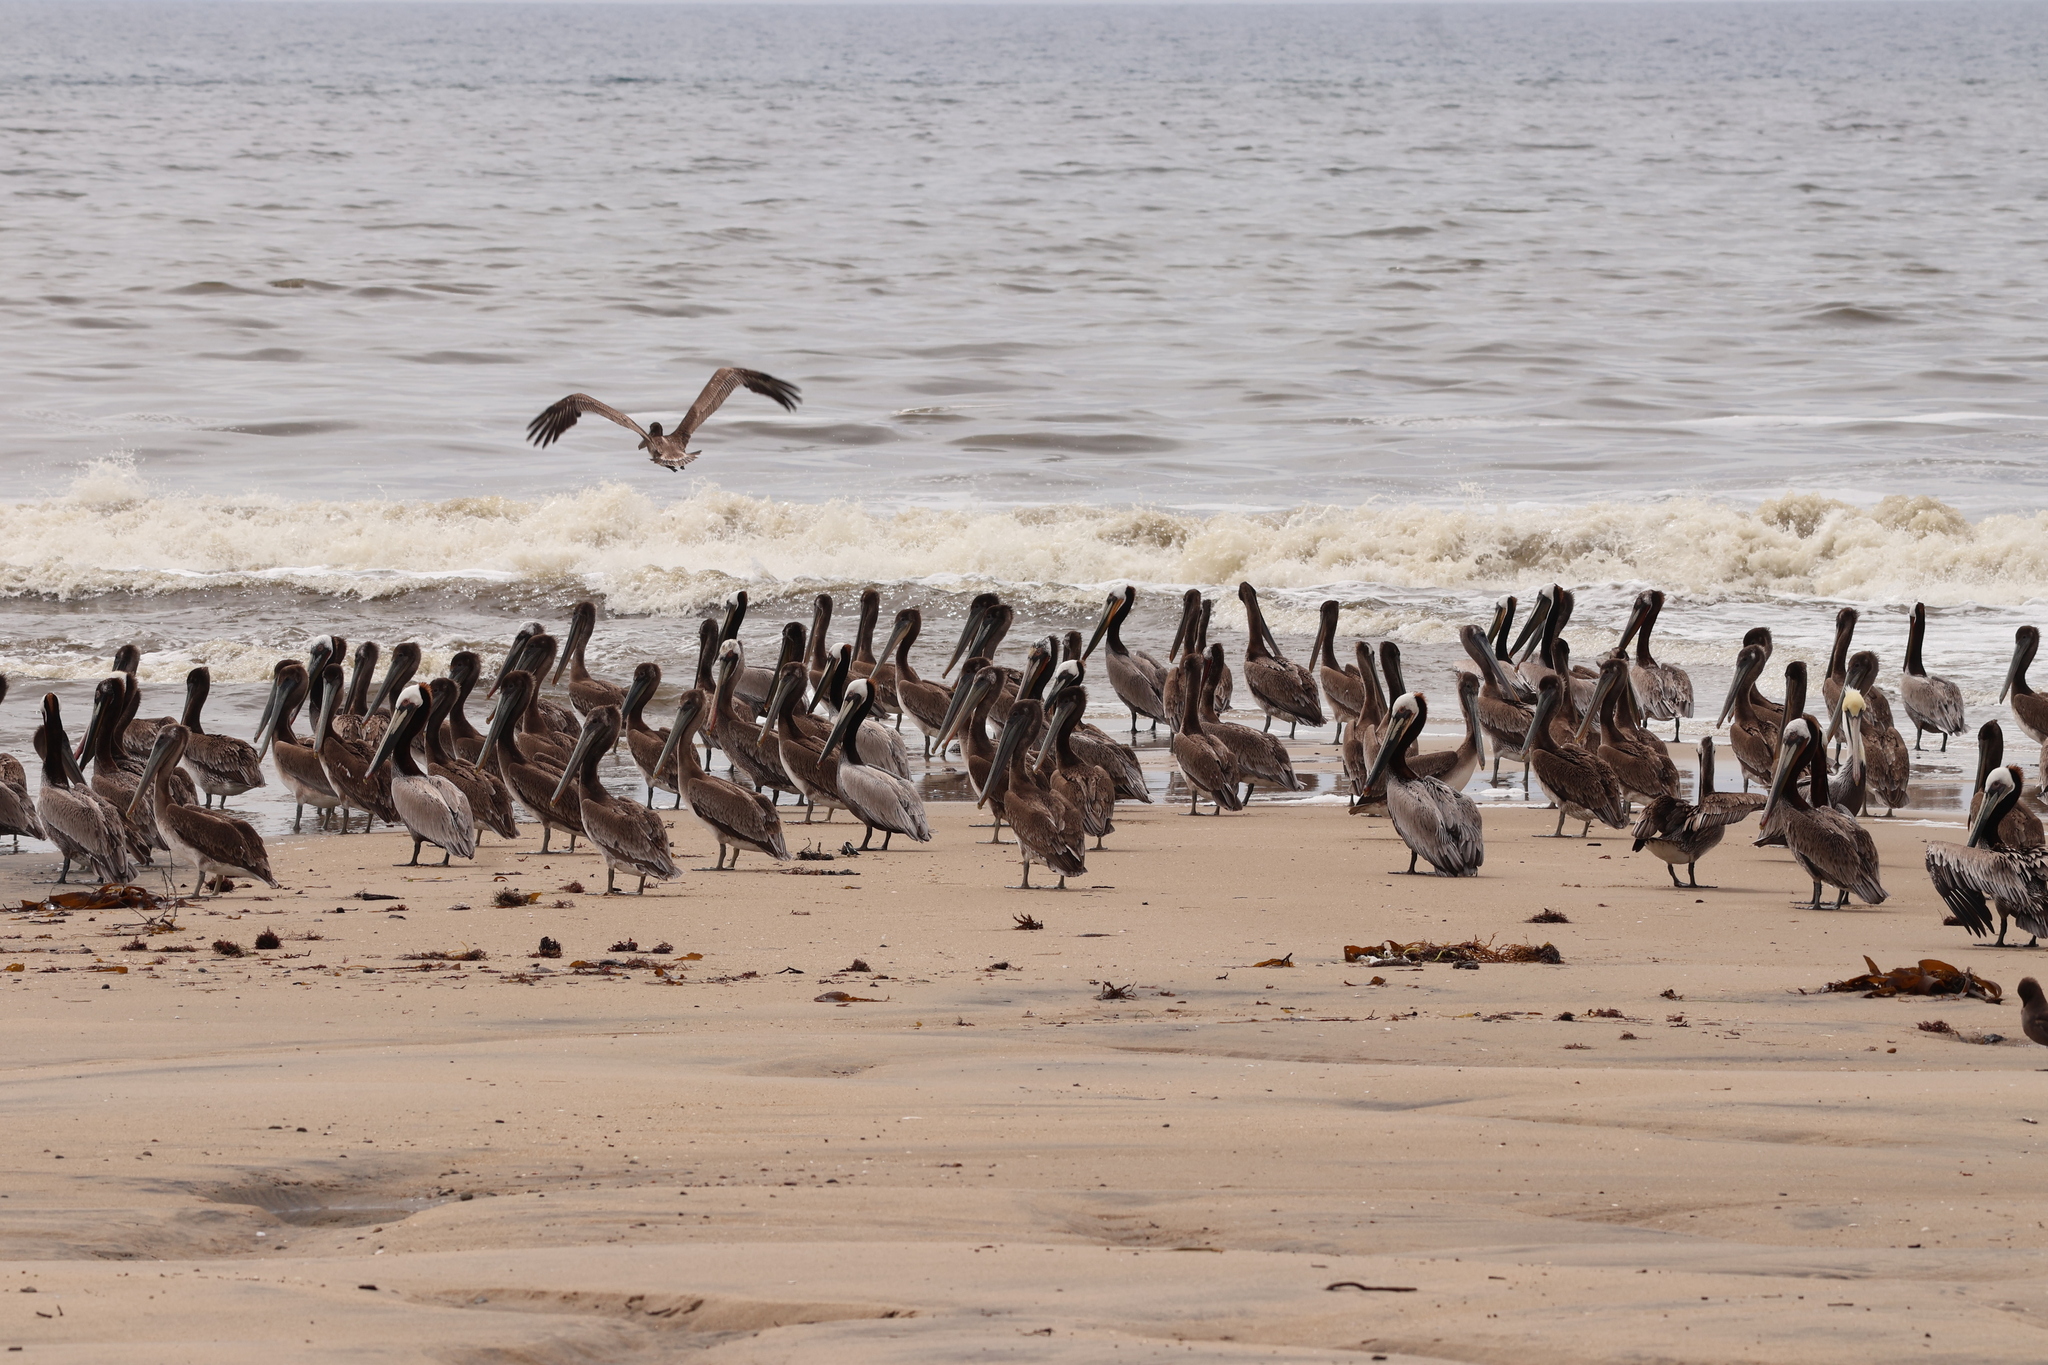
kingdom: Animalia
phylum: Chordata
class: Aves
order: Pelecaniformes
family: Pelecanidae
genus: Pelecanus
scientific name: Pelecanus occidentalis
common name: Brown pelican
